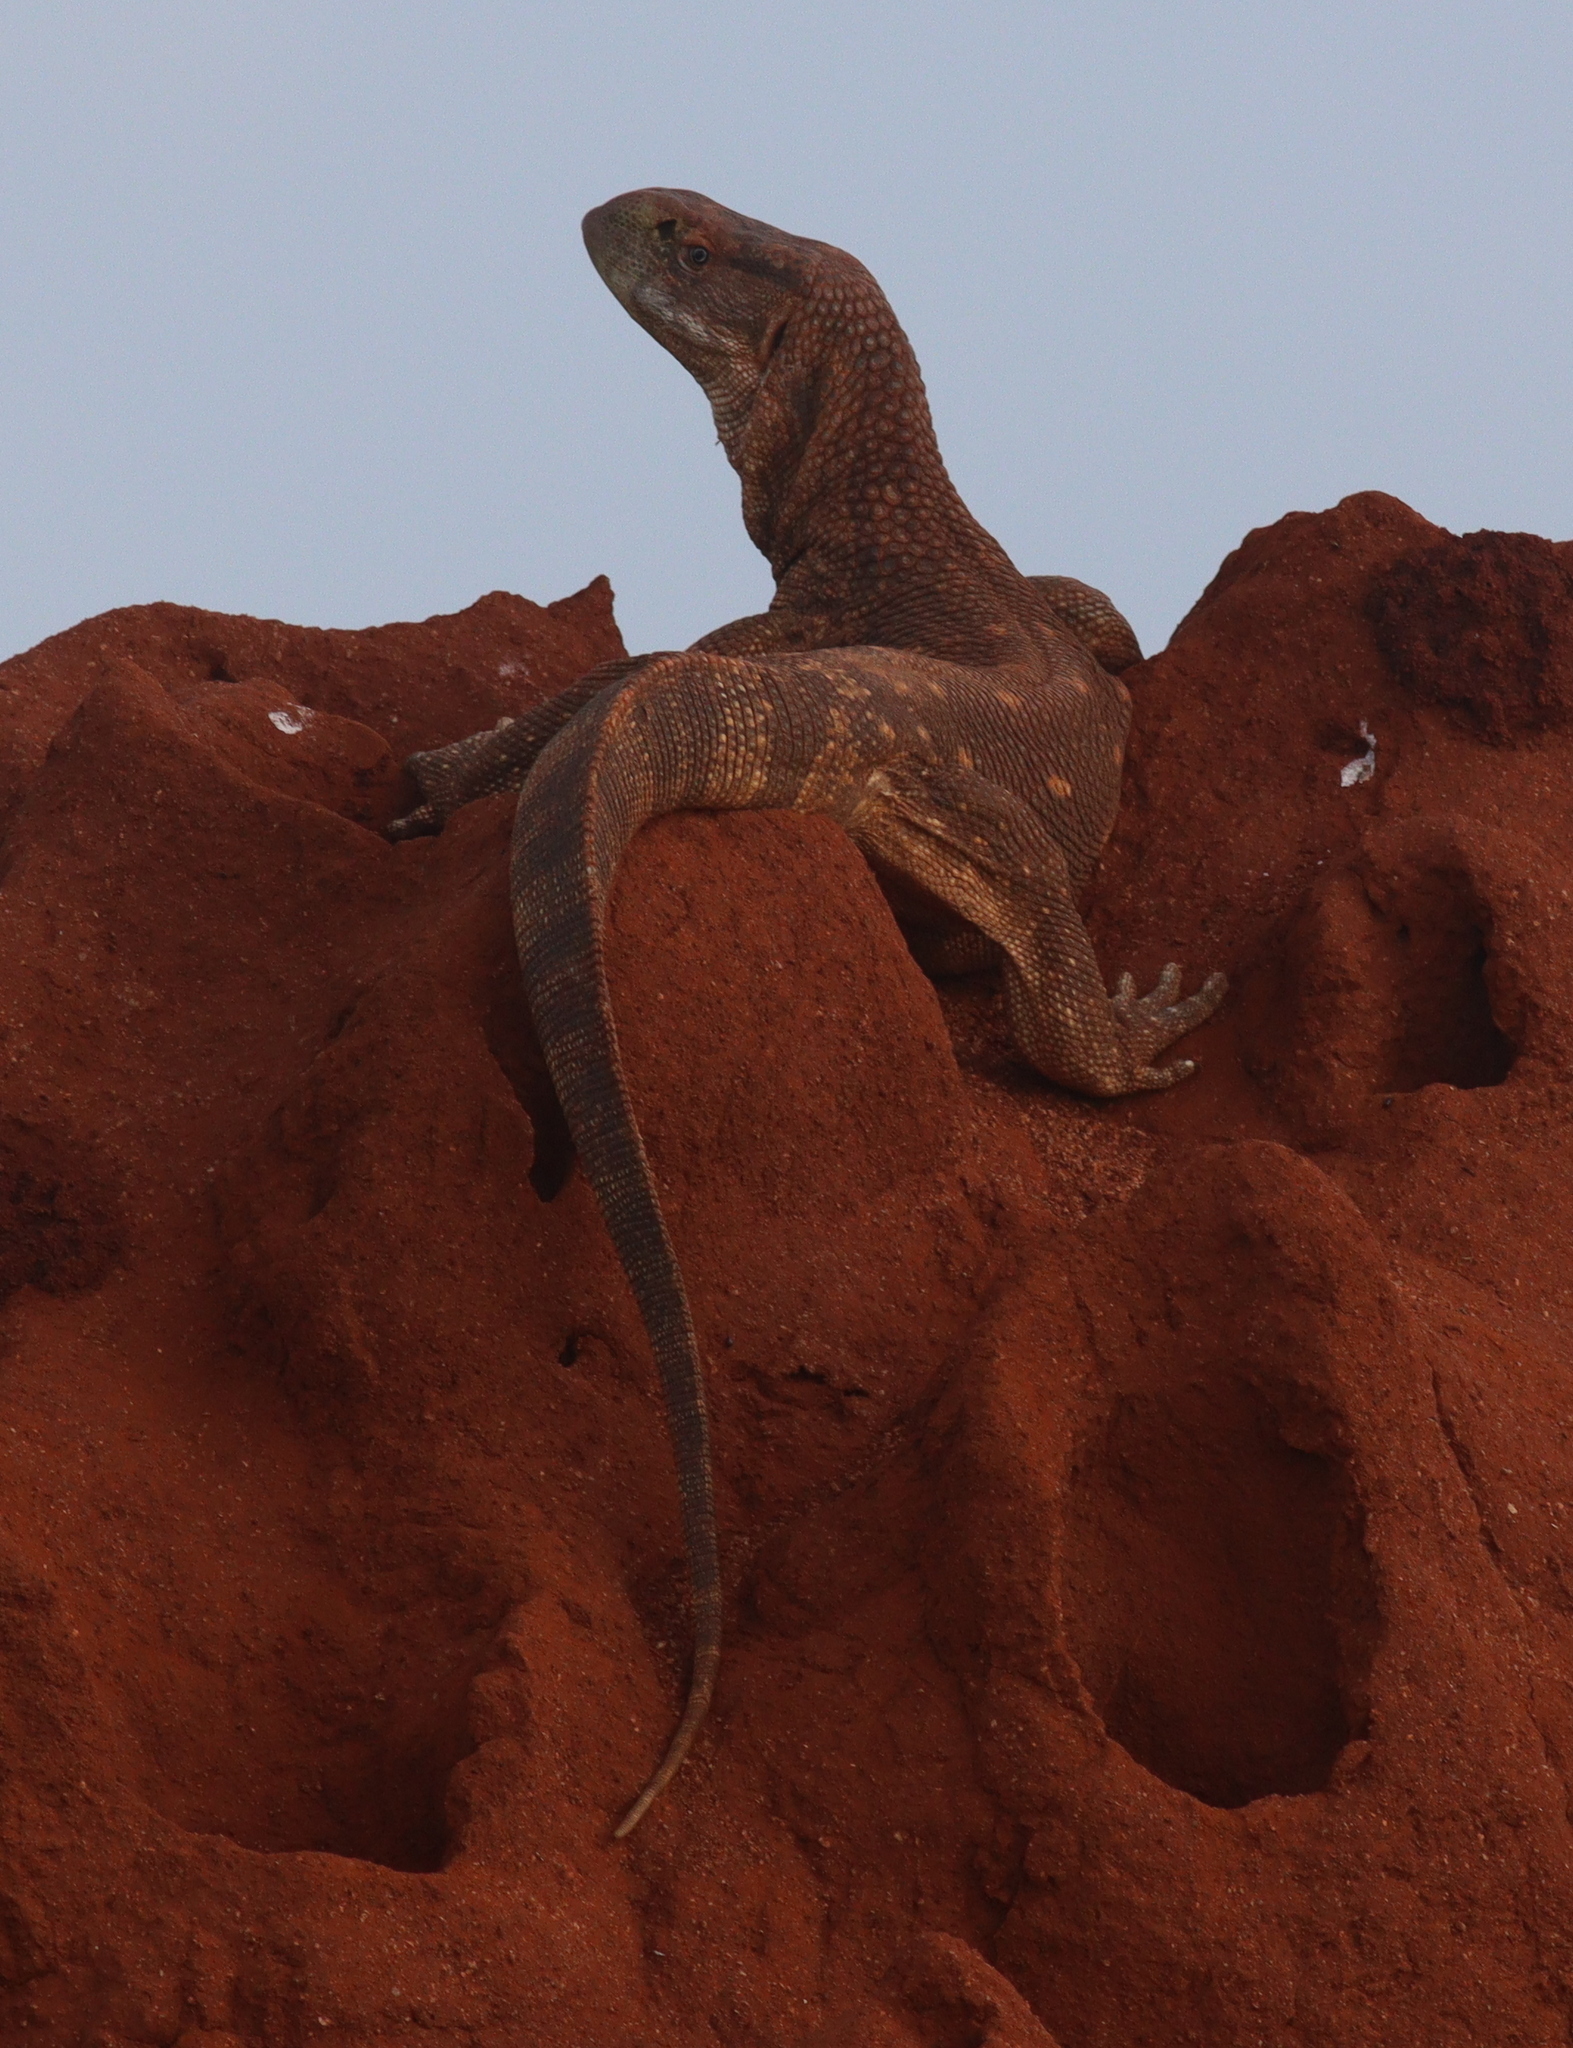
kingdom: Animalia
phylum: Chordata
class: Squamata
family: Varanidae
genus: Varanus
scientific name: Varanus albigularis
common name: White-throated monitor
